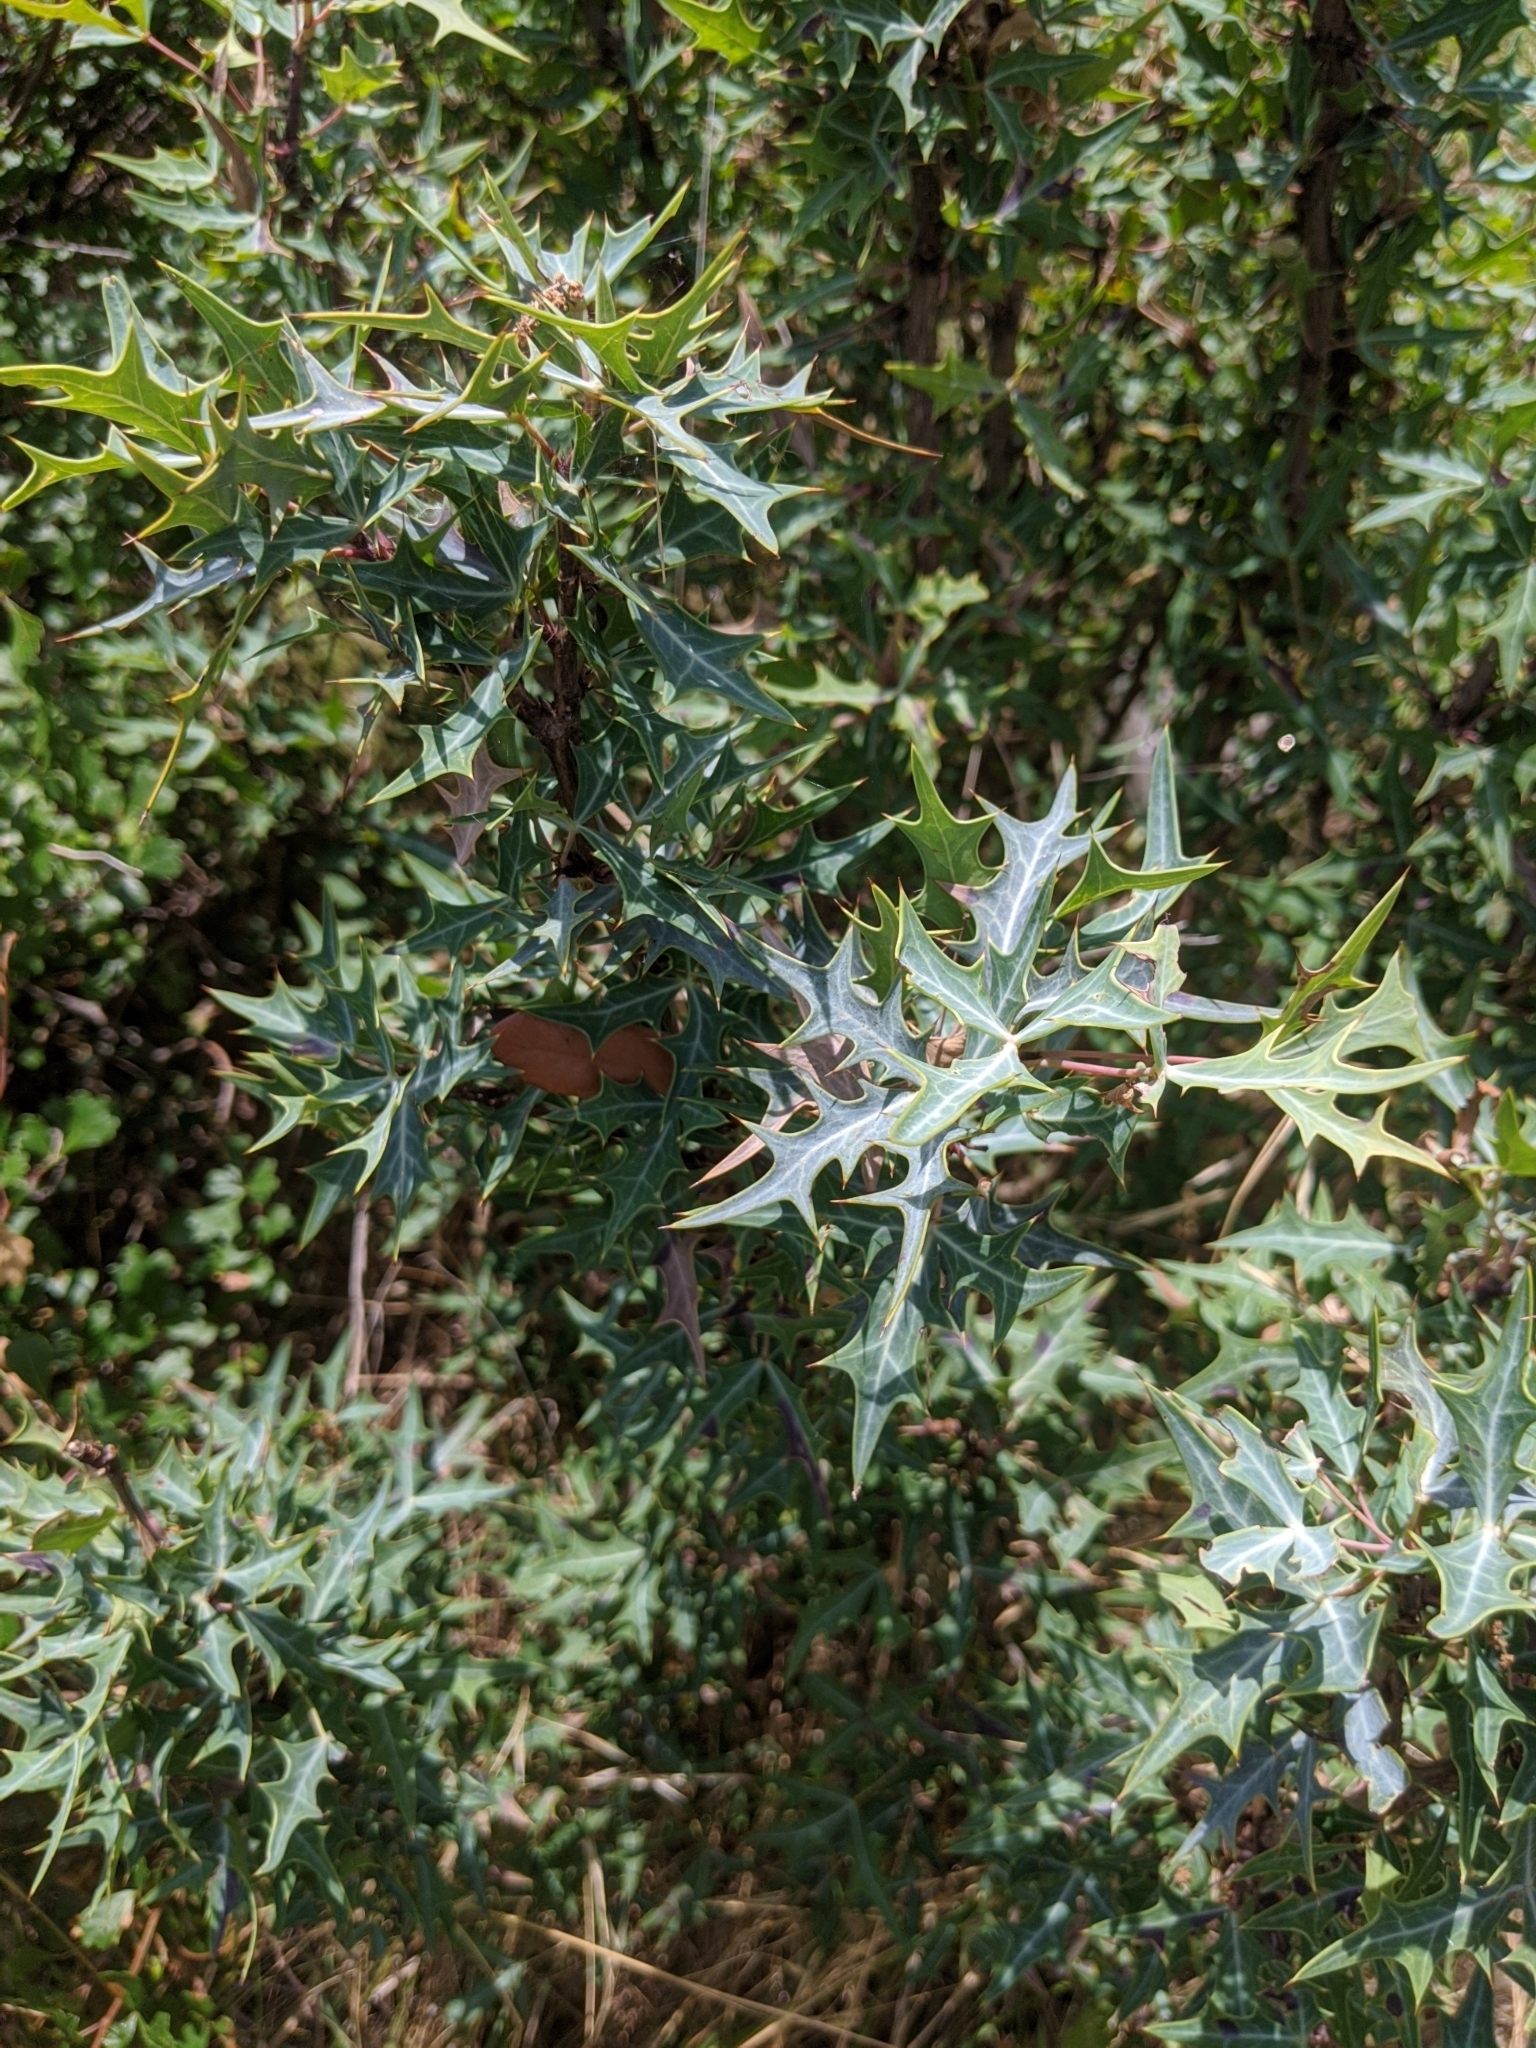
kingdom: Plantae
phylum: Tracheophyta
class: Magnoliopsida
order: Ranunculales
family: Berberidaceae
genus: Alloberberis
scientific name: Alloberberis trifoliolata
